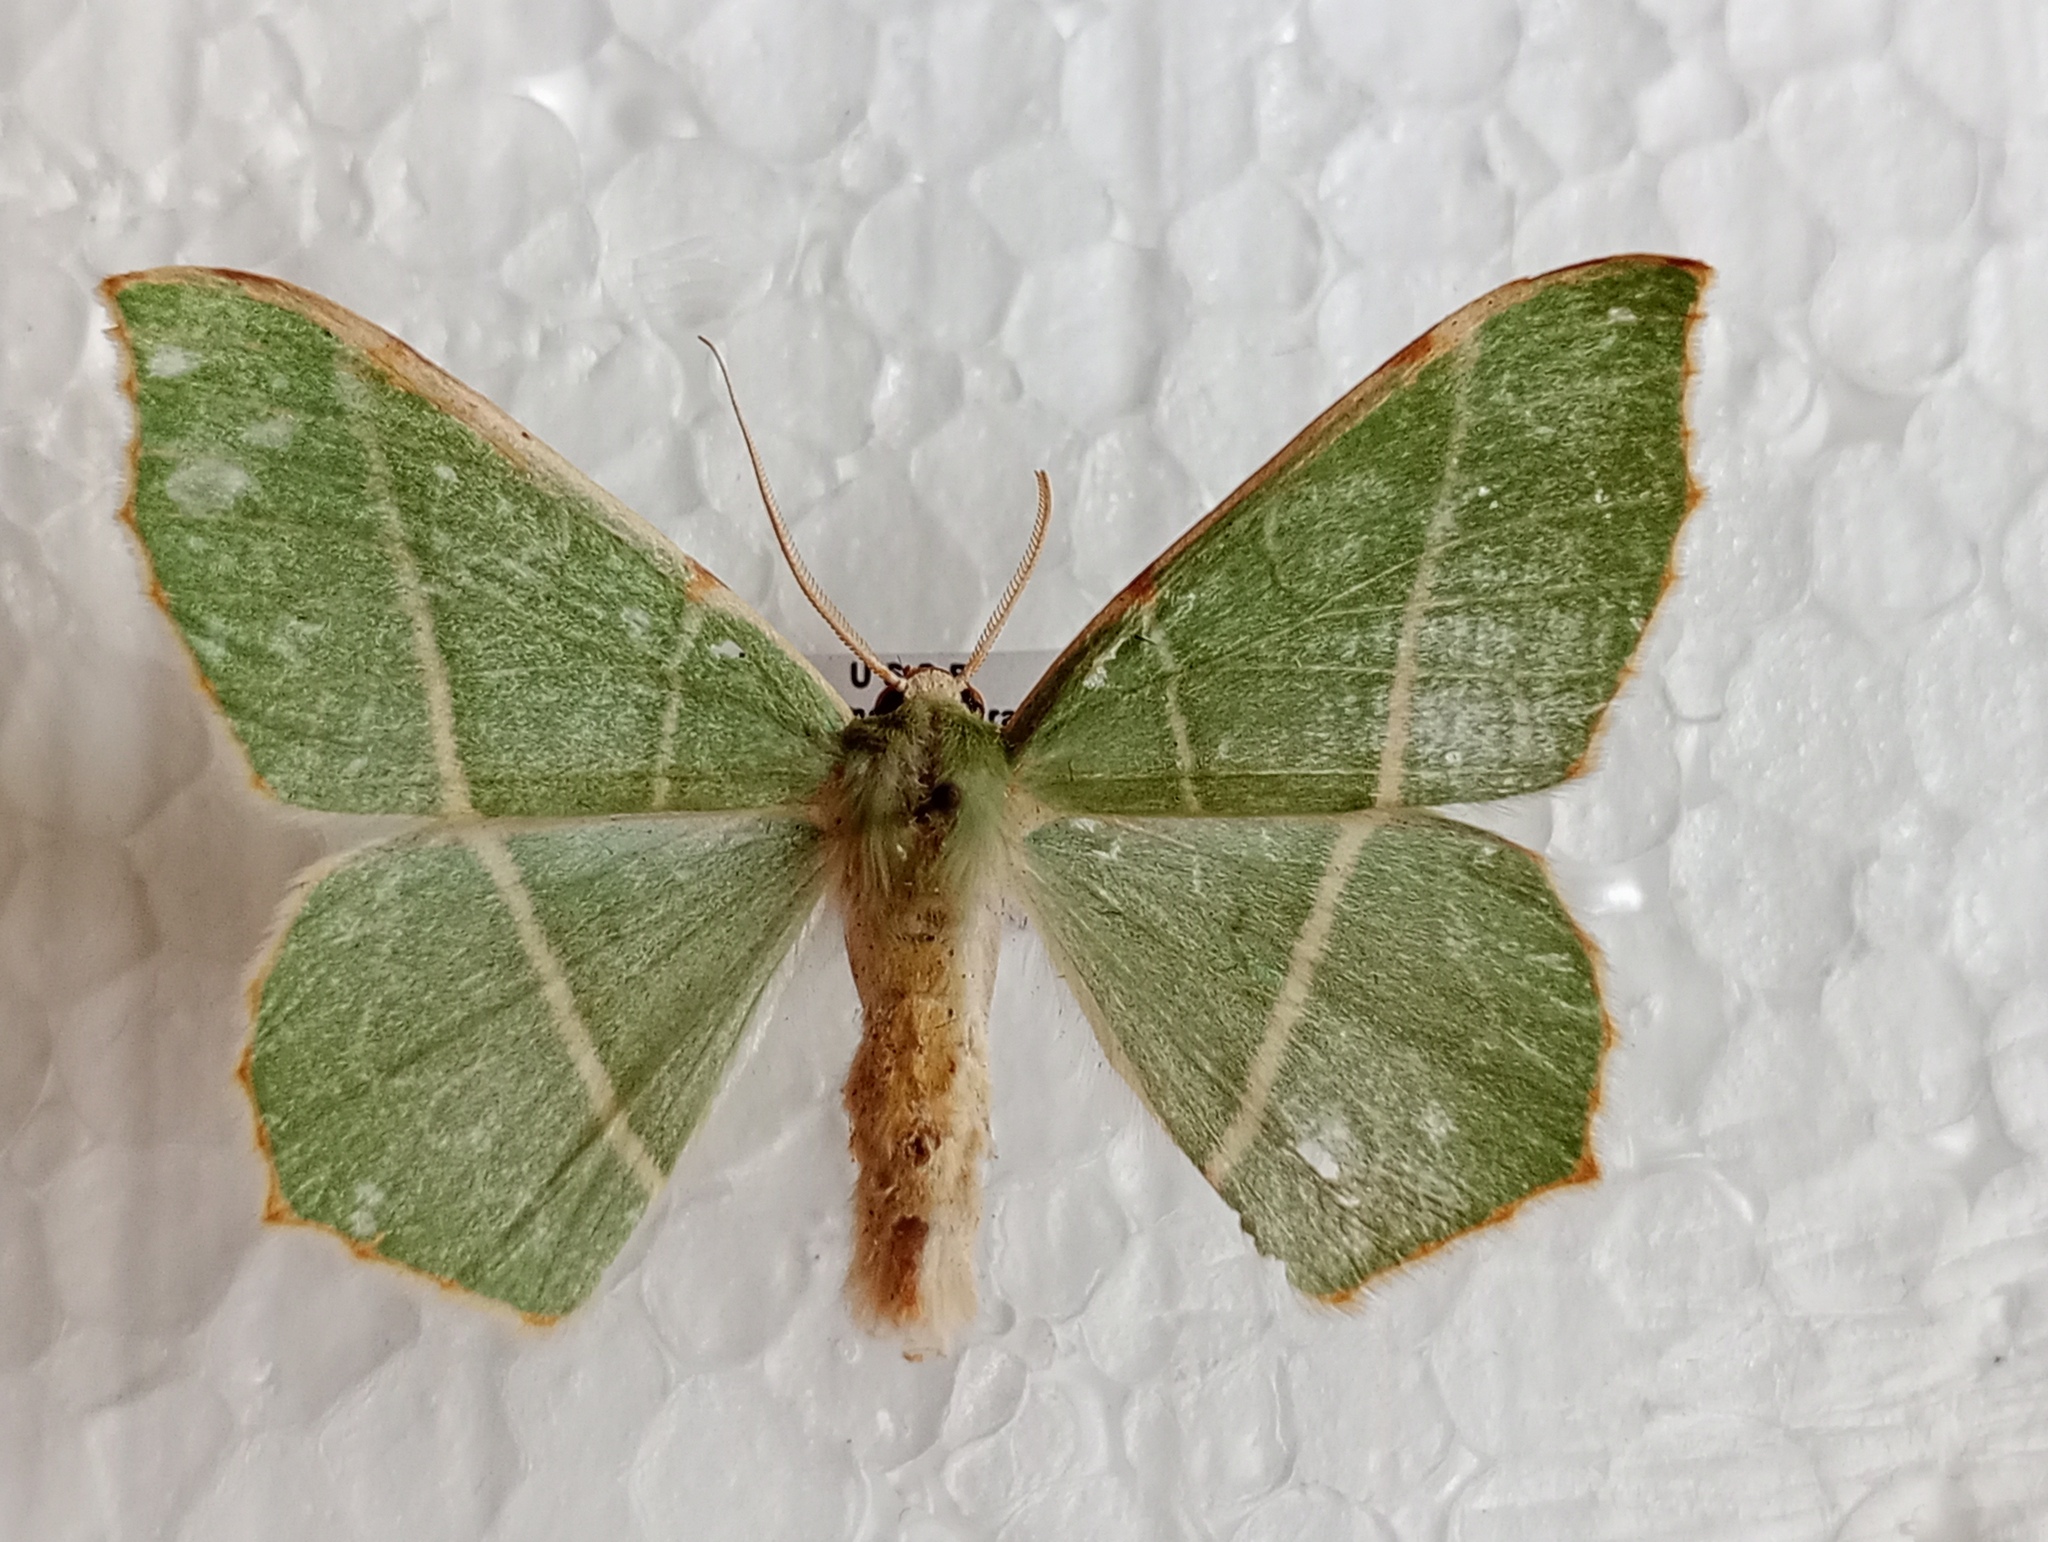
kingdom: Animalia
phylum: Arthropoda
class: Insecta
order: Lepidoptera
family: Geometridae
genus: Geometra
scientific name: Geometra sponsaria
